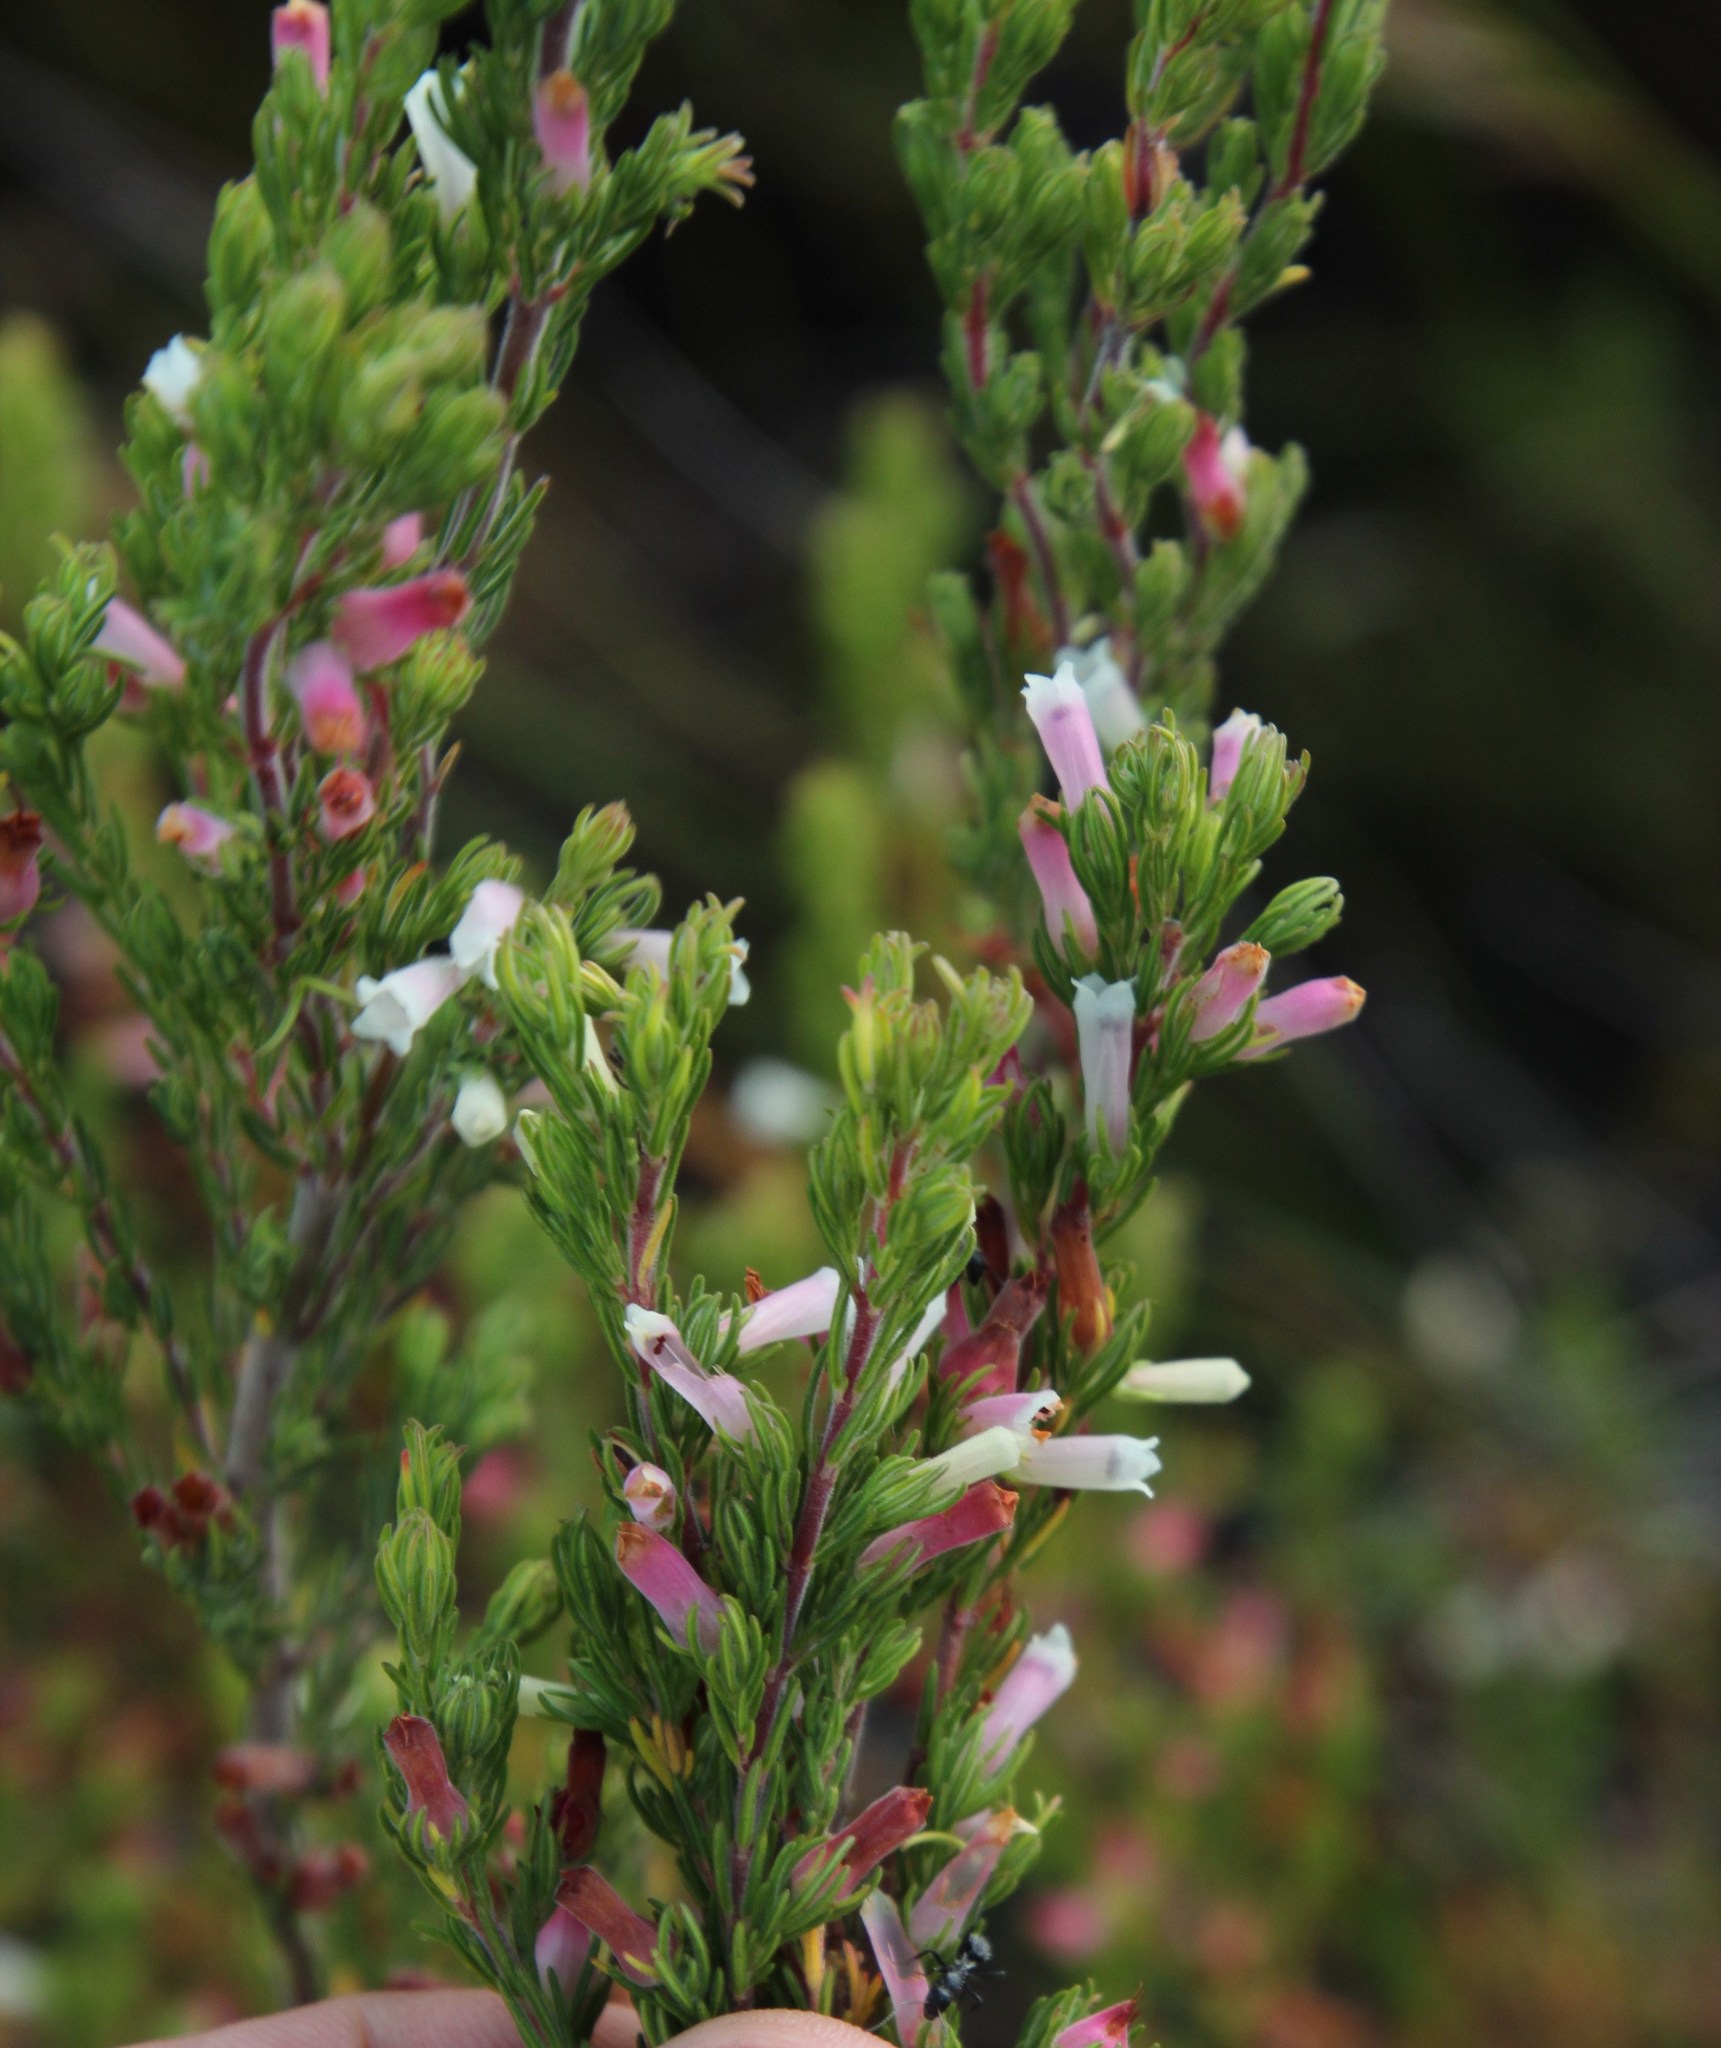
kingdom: Plantae
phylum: Tracheophyta
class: Magnoliopsida
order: Ericales
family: Ericaceae
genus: Erica
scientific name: Erica fontana
